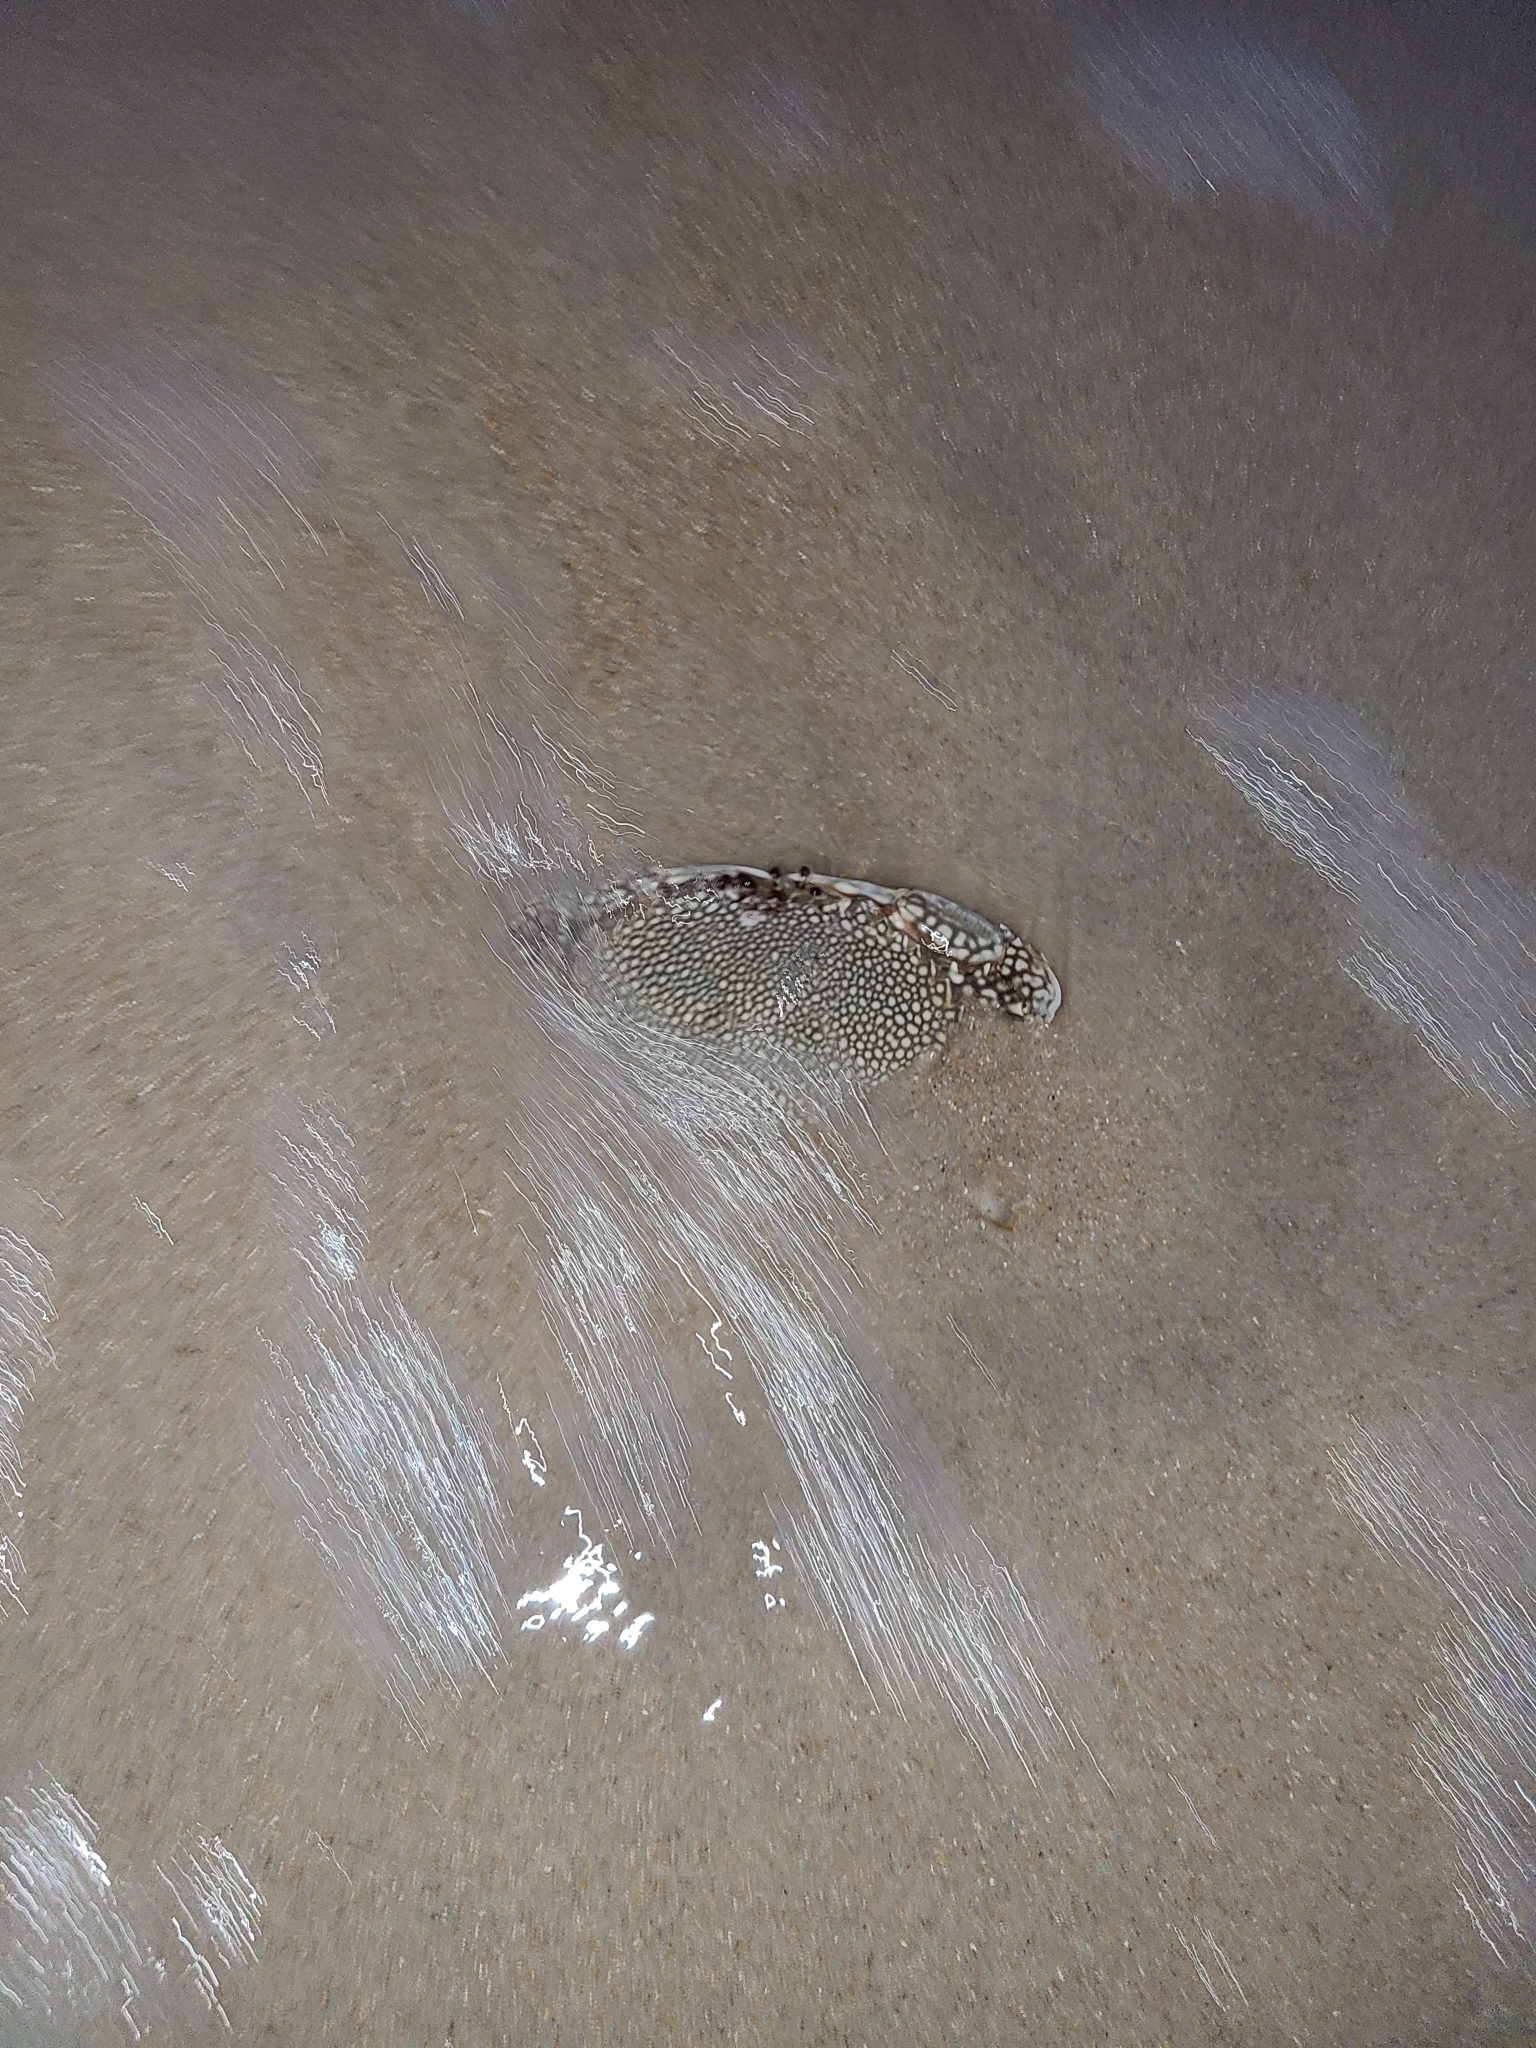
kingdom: Animalia
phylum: Arthropoda
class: Malacostraca
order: Decapoda
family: Portunidae
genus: Arenaeus
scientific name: Arenaeus cribrarius
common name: Speckled crab
